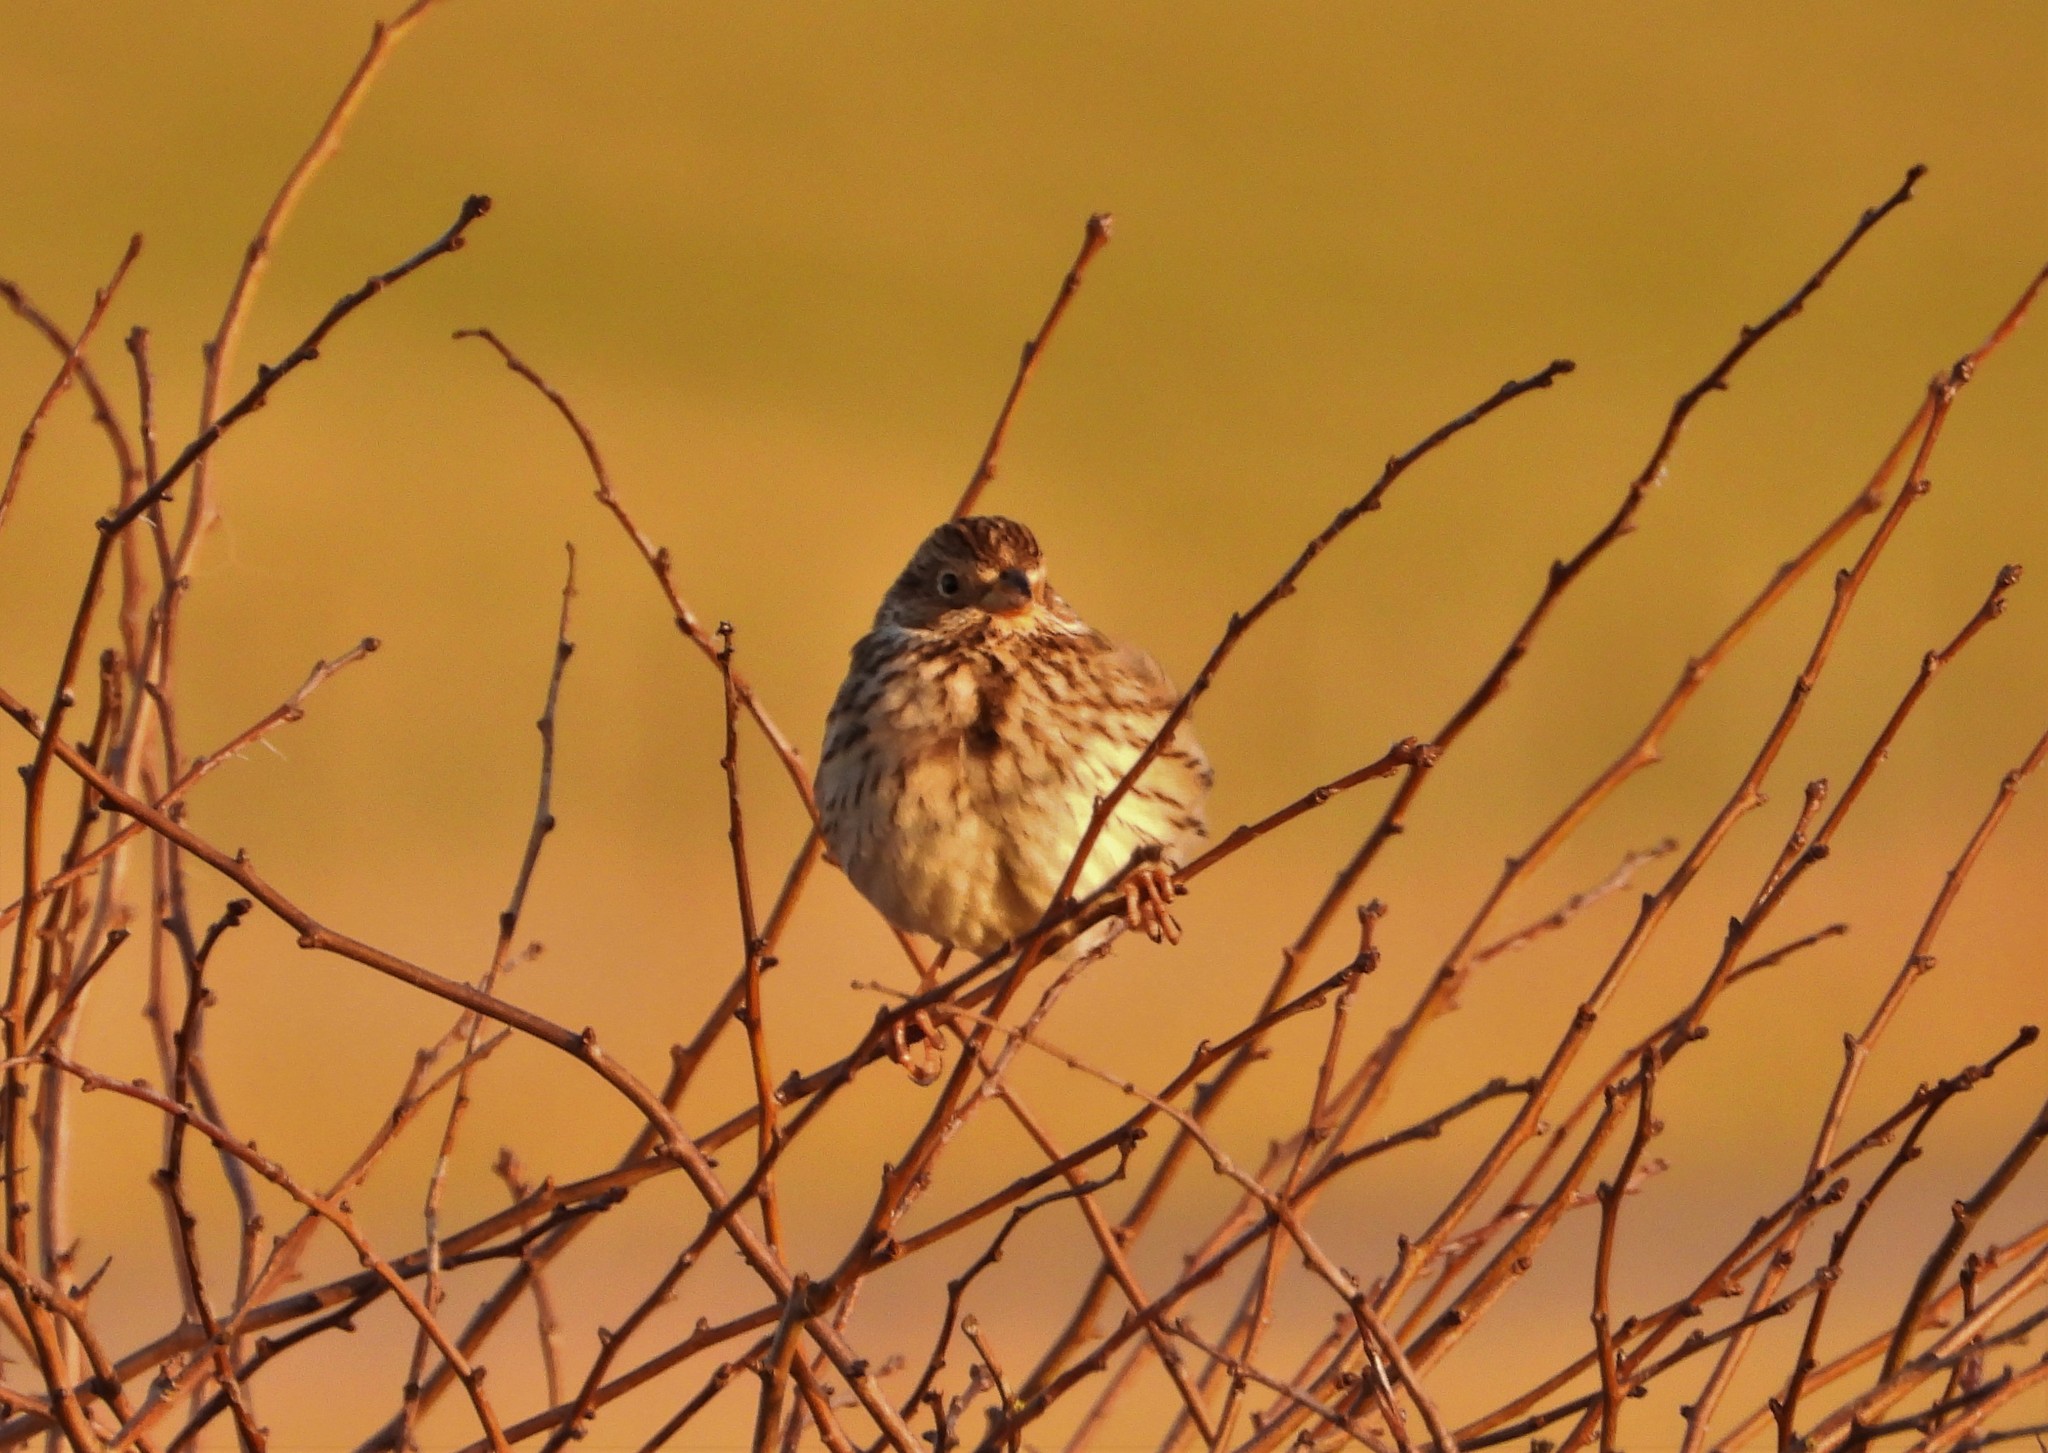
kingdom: Animalia
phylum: Chordata
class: Aves
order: Passeriformes
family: Emberizidae
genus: Emberiza
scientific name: Emberiza calandra
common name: Corn bunting
